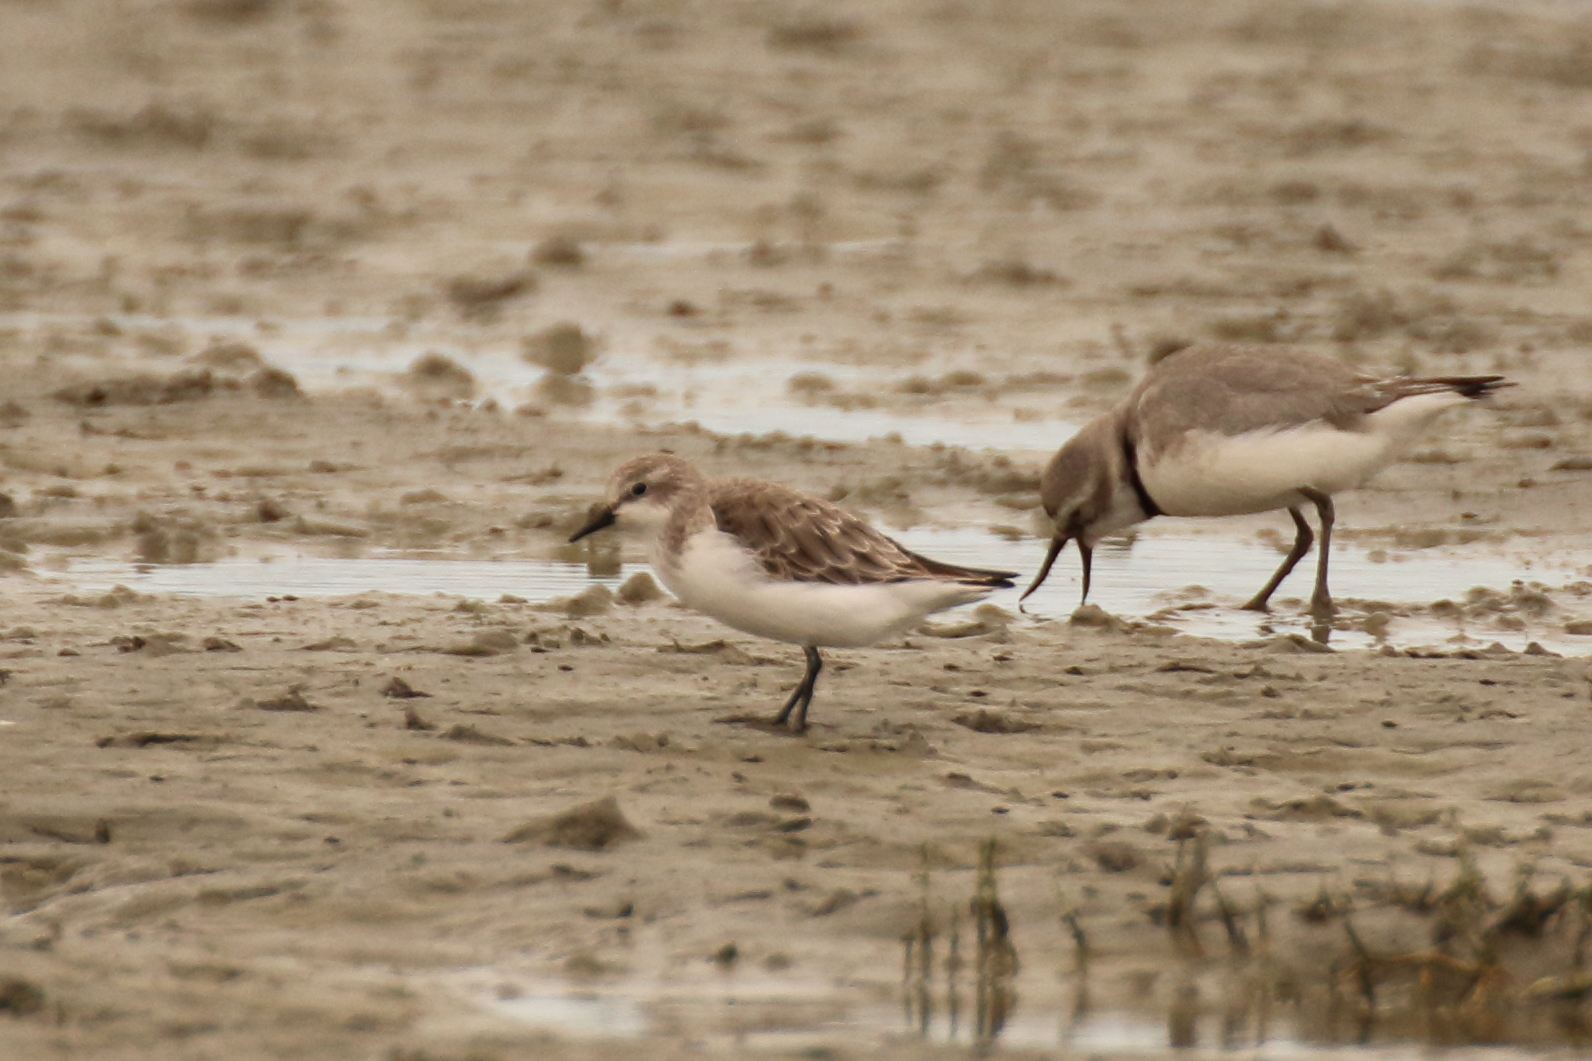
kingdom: Animalia
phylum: Chordata
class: Aves
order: Charadriiformes
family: Scolopacidae
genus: Calidris
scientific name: Calidris ruficollis
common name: Red-necked stint
